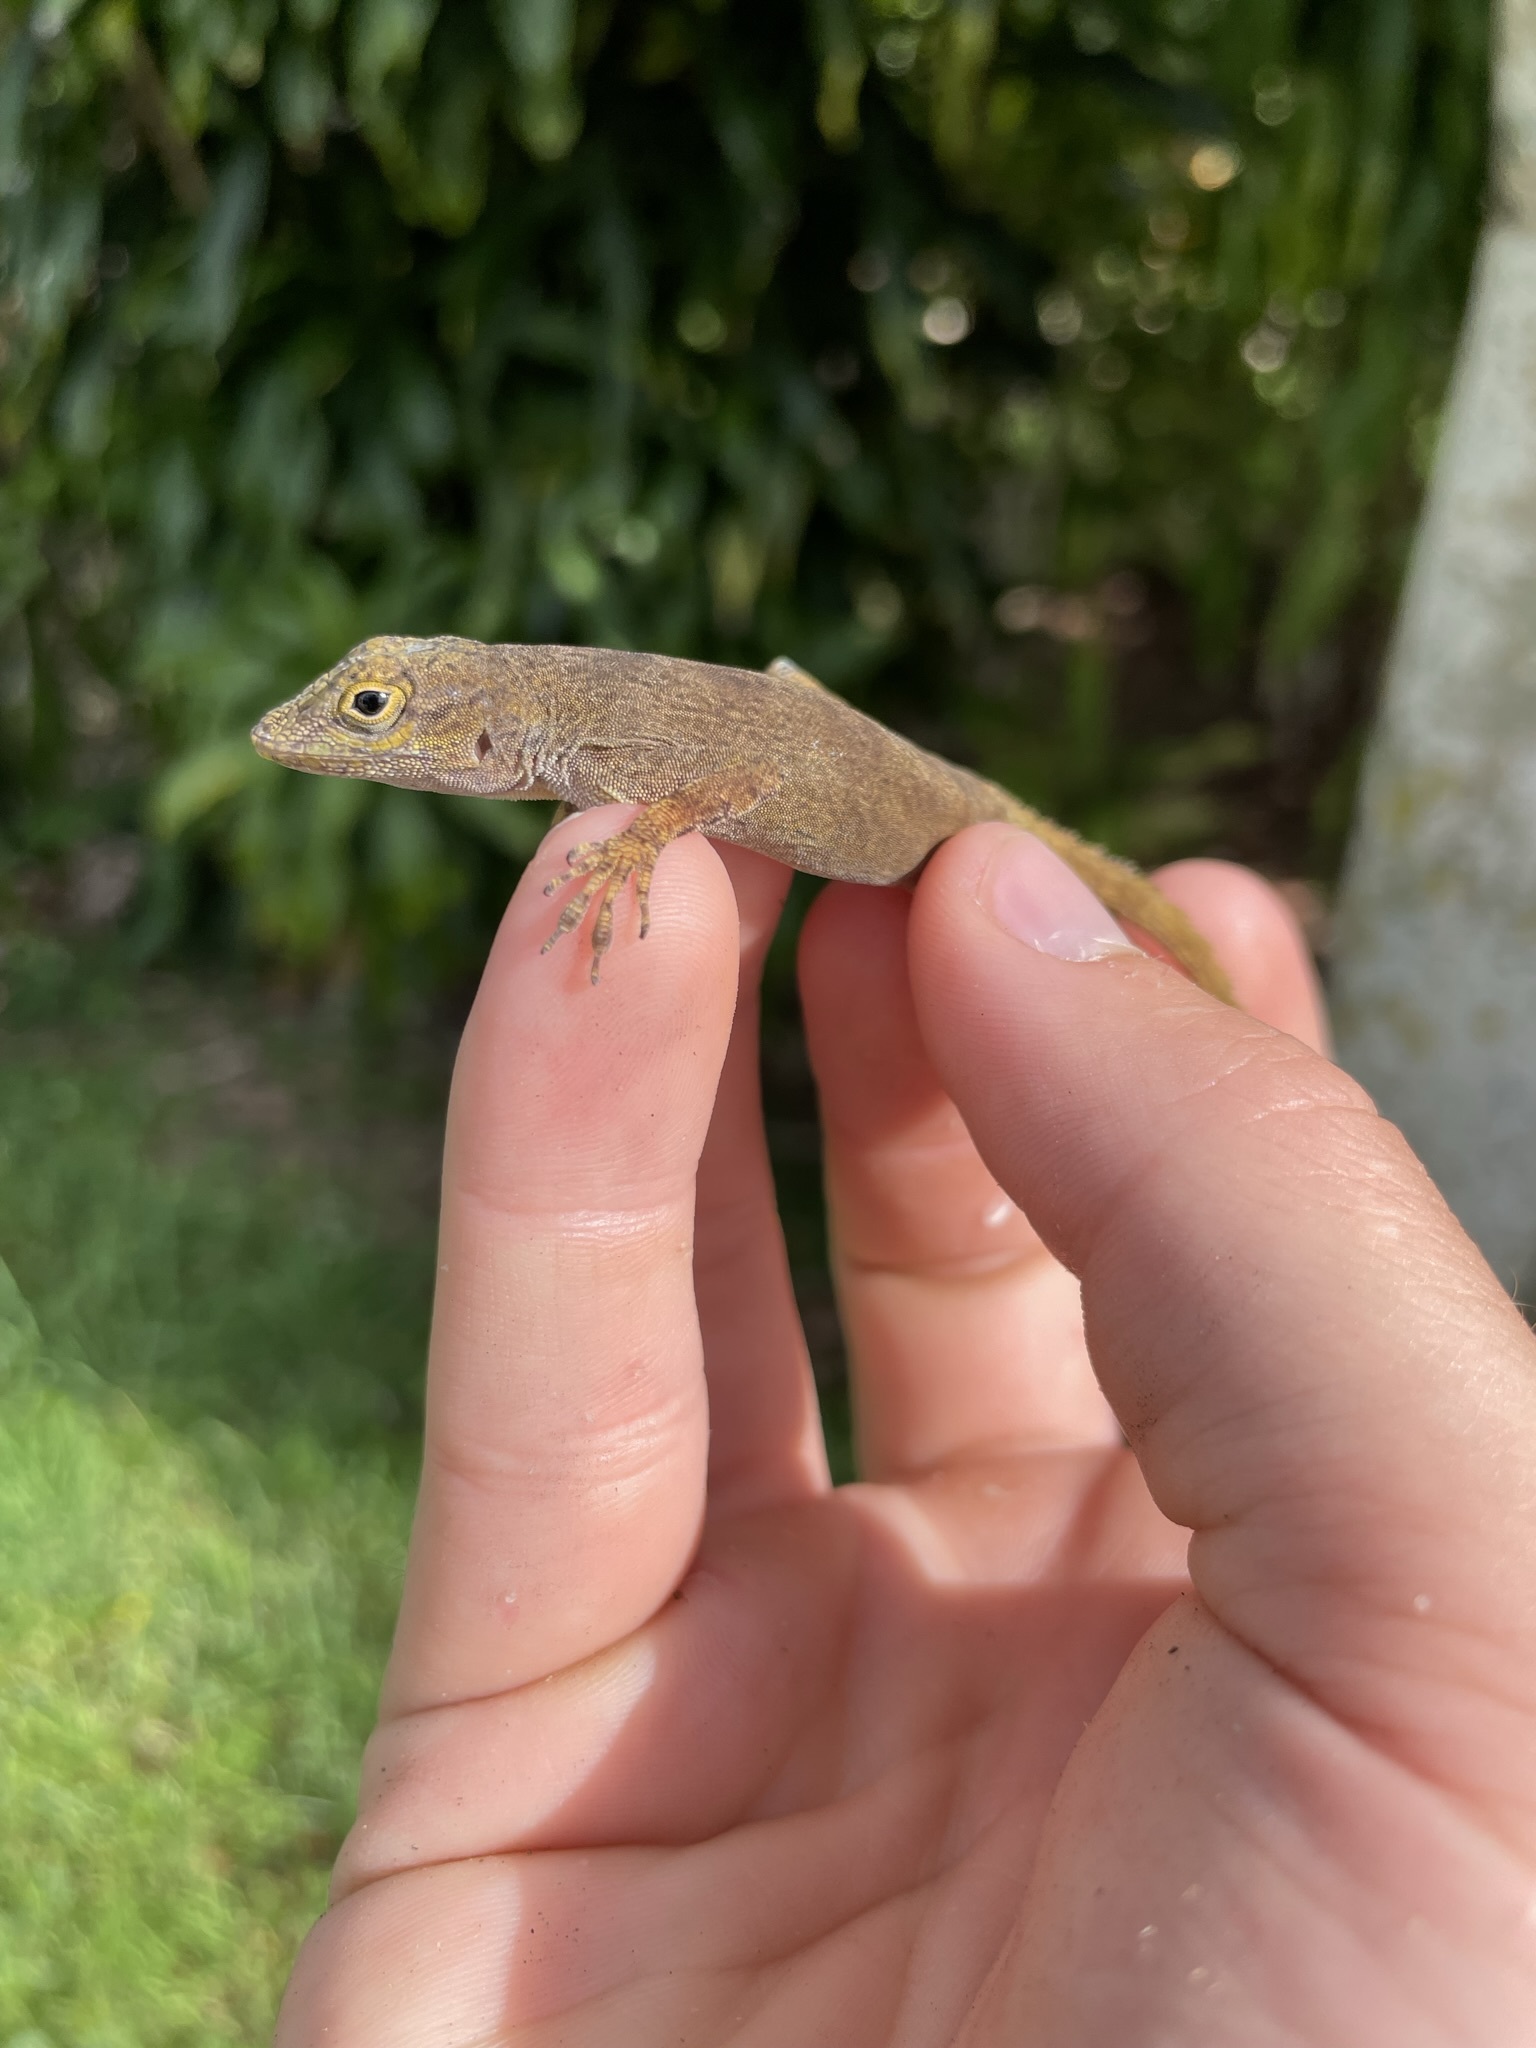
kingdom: Animalia
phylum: Chordata
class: Squamata
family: Dactyloidae
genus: Anolis
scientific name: Anolis distichus
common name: Bark anole
